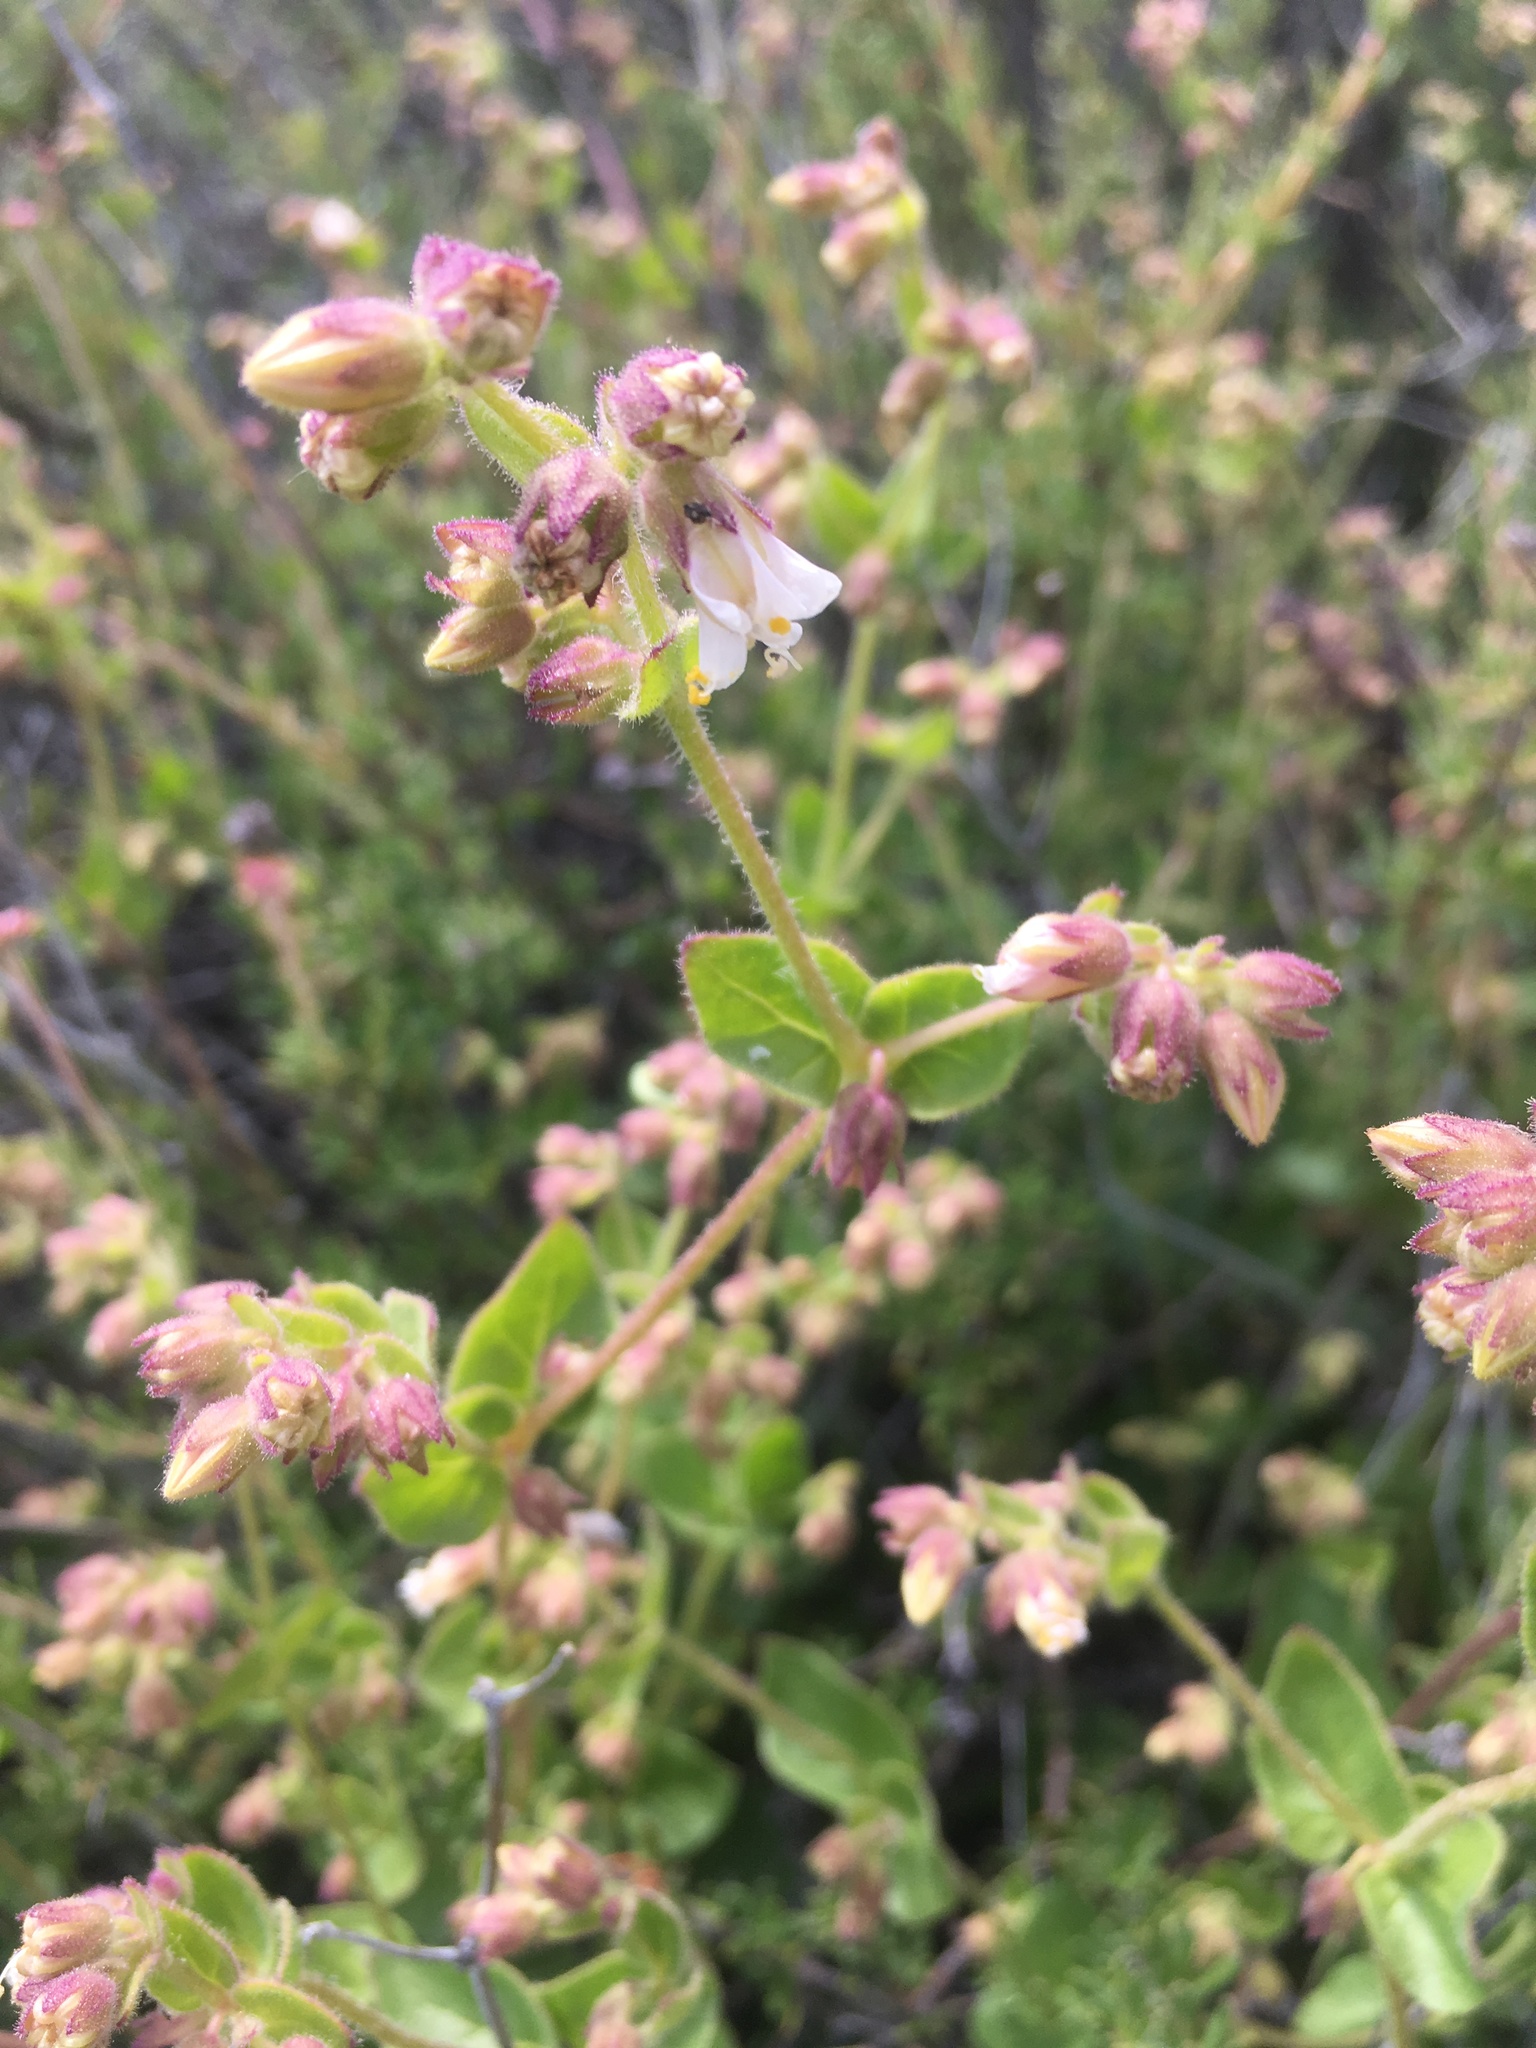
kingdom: Plantae
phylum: Tracheophyta
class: Magnoliopsida
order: Caryophyllales
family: Nyctaginaceae
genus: Mirabilis
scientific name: Mirabilis laevis
